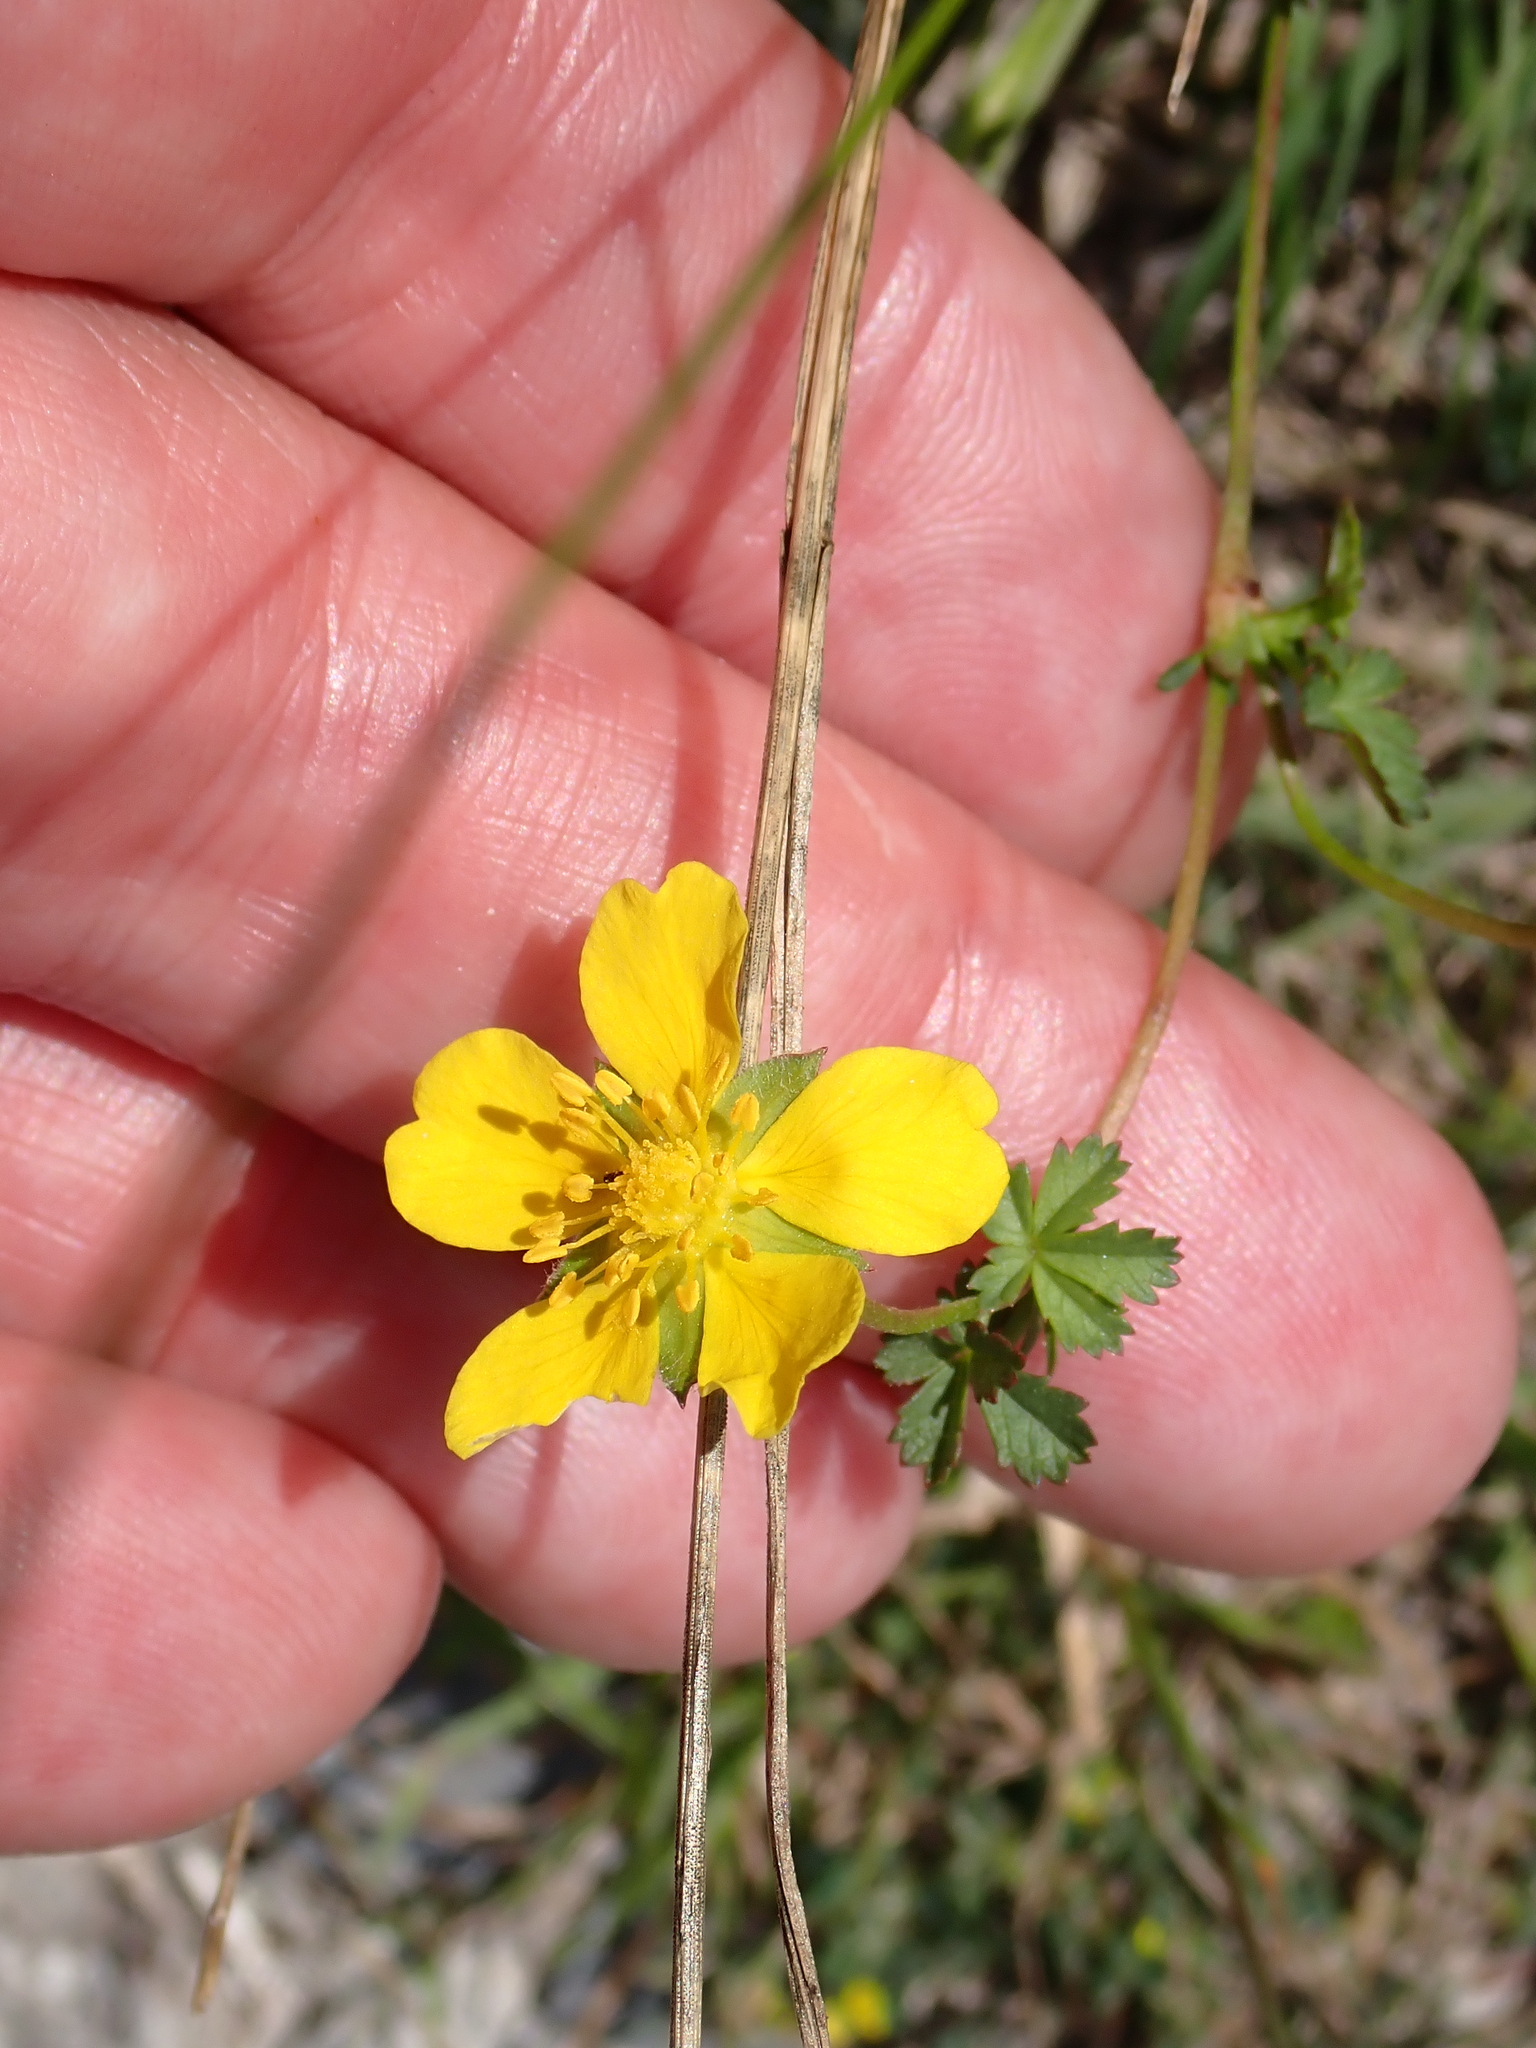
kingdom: Plantae
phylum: Tracheophyta
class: Magnoliopsida
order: Rosales
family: Rosaceae
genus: Potentilla
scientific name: Potentilla reptans
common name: Creeping cinquefoil
